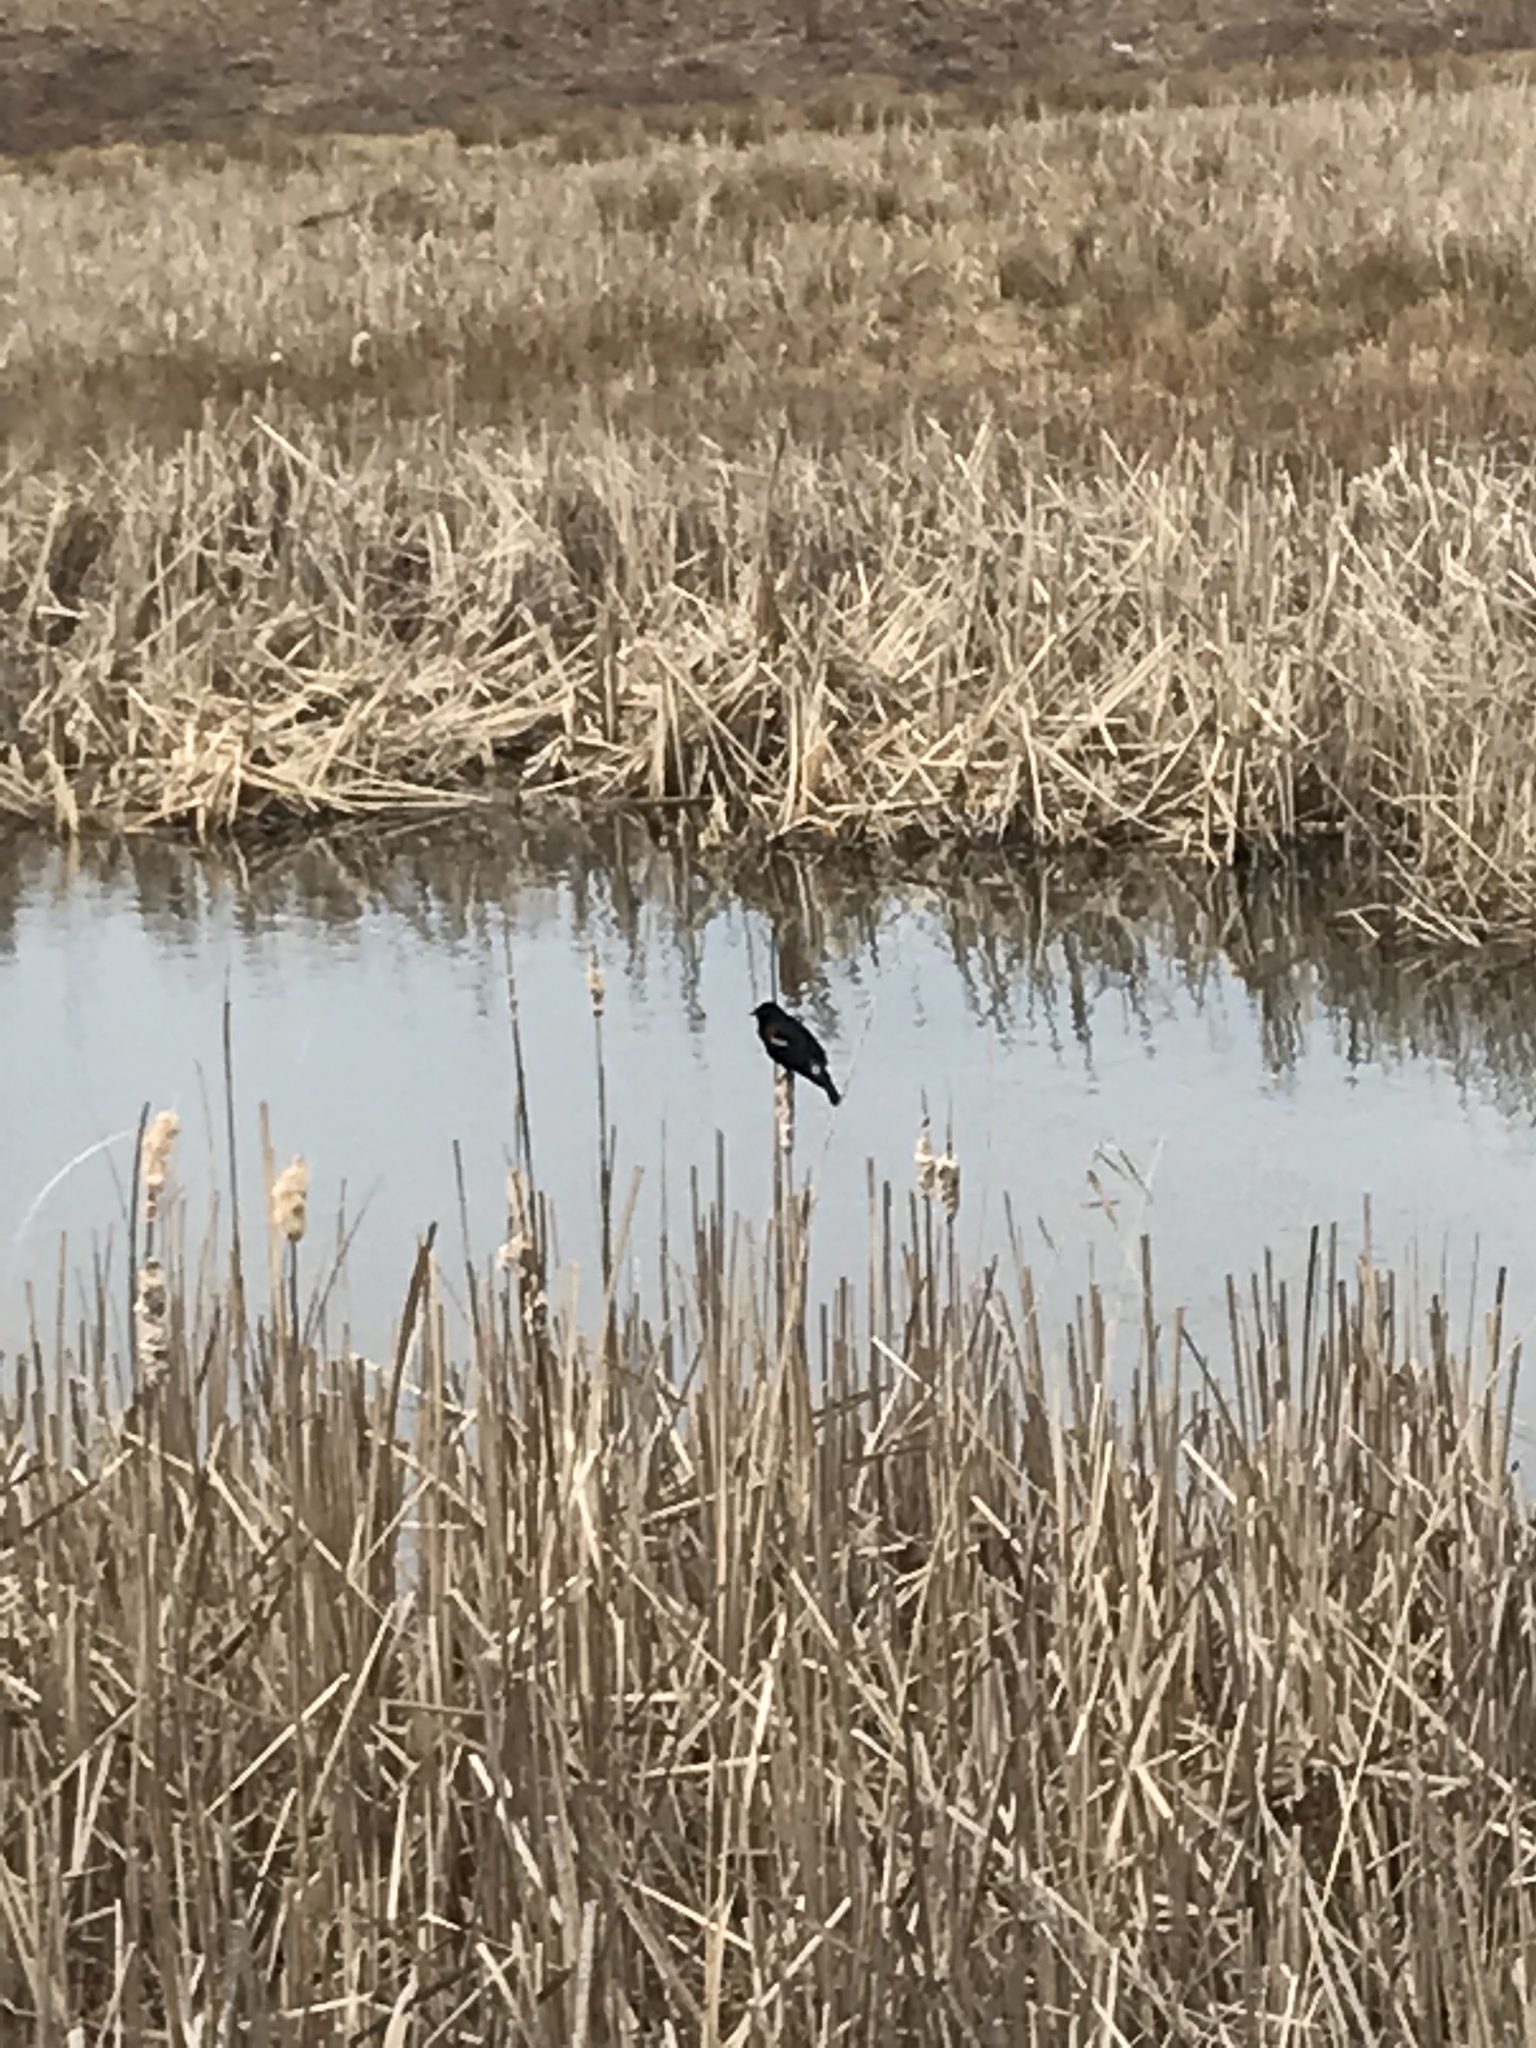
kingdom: Animalia
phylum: Chordata
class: Aves
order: Passeriformes
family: Icteridae
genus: Agelaius
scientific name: Agelaius phoeniceus
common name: Red-winged blackbird
